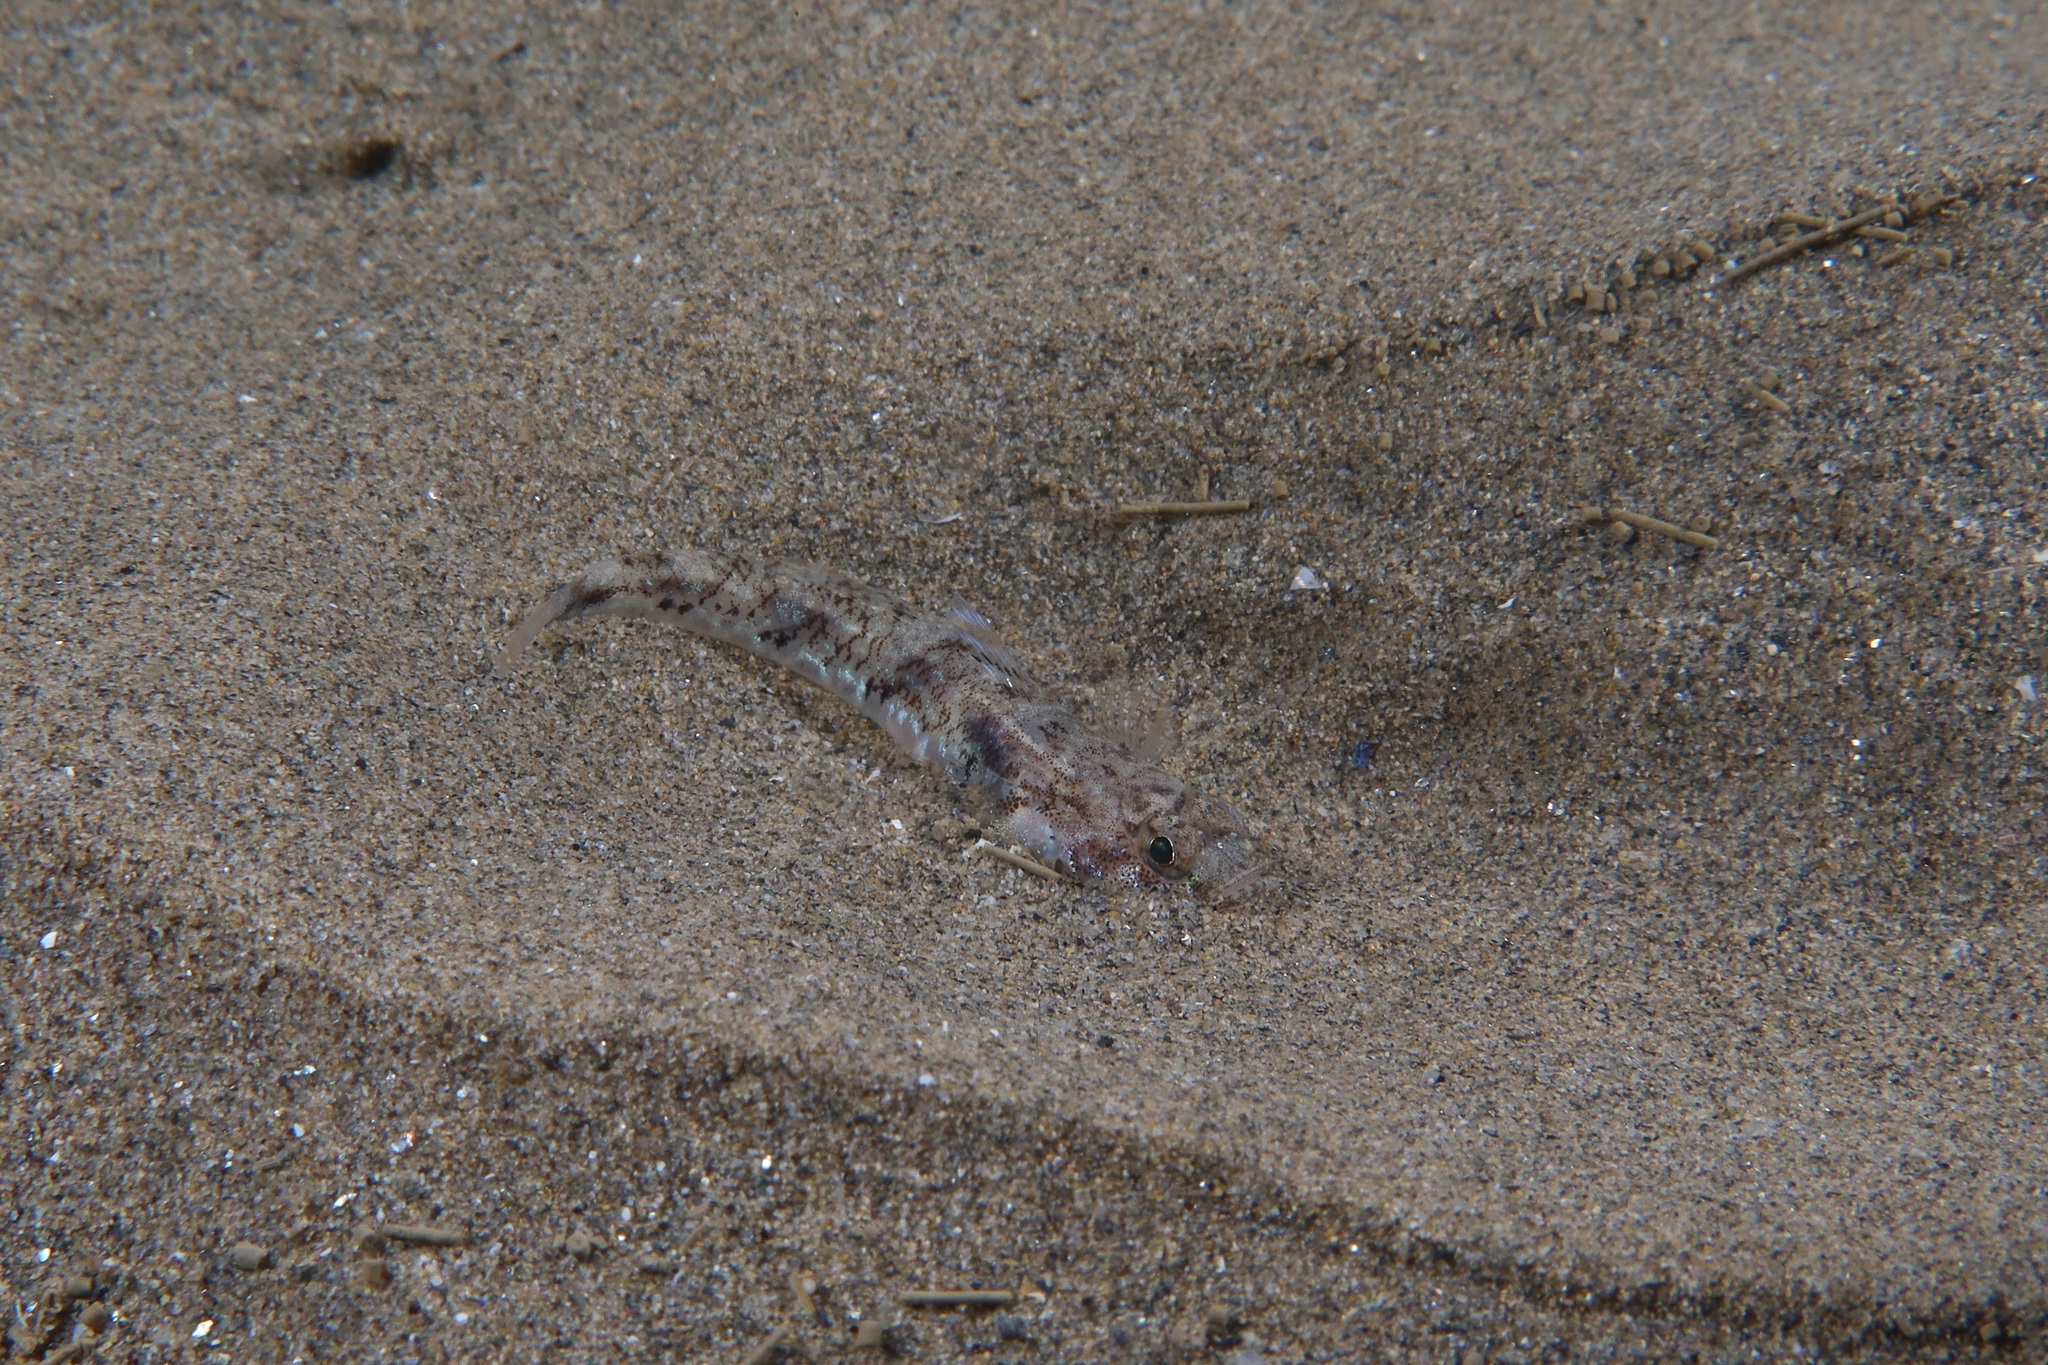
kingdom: Animalia
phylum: Chordata
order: Perciformes
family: Gobiidae
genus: Pomatoschistus
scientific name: Pomatoschistus pictus
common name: Painted goby
